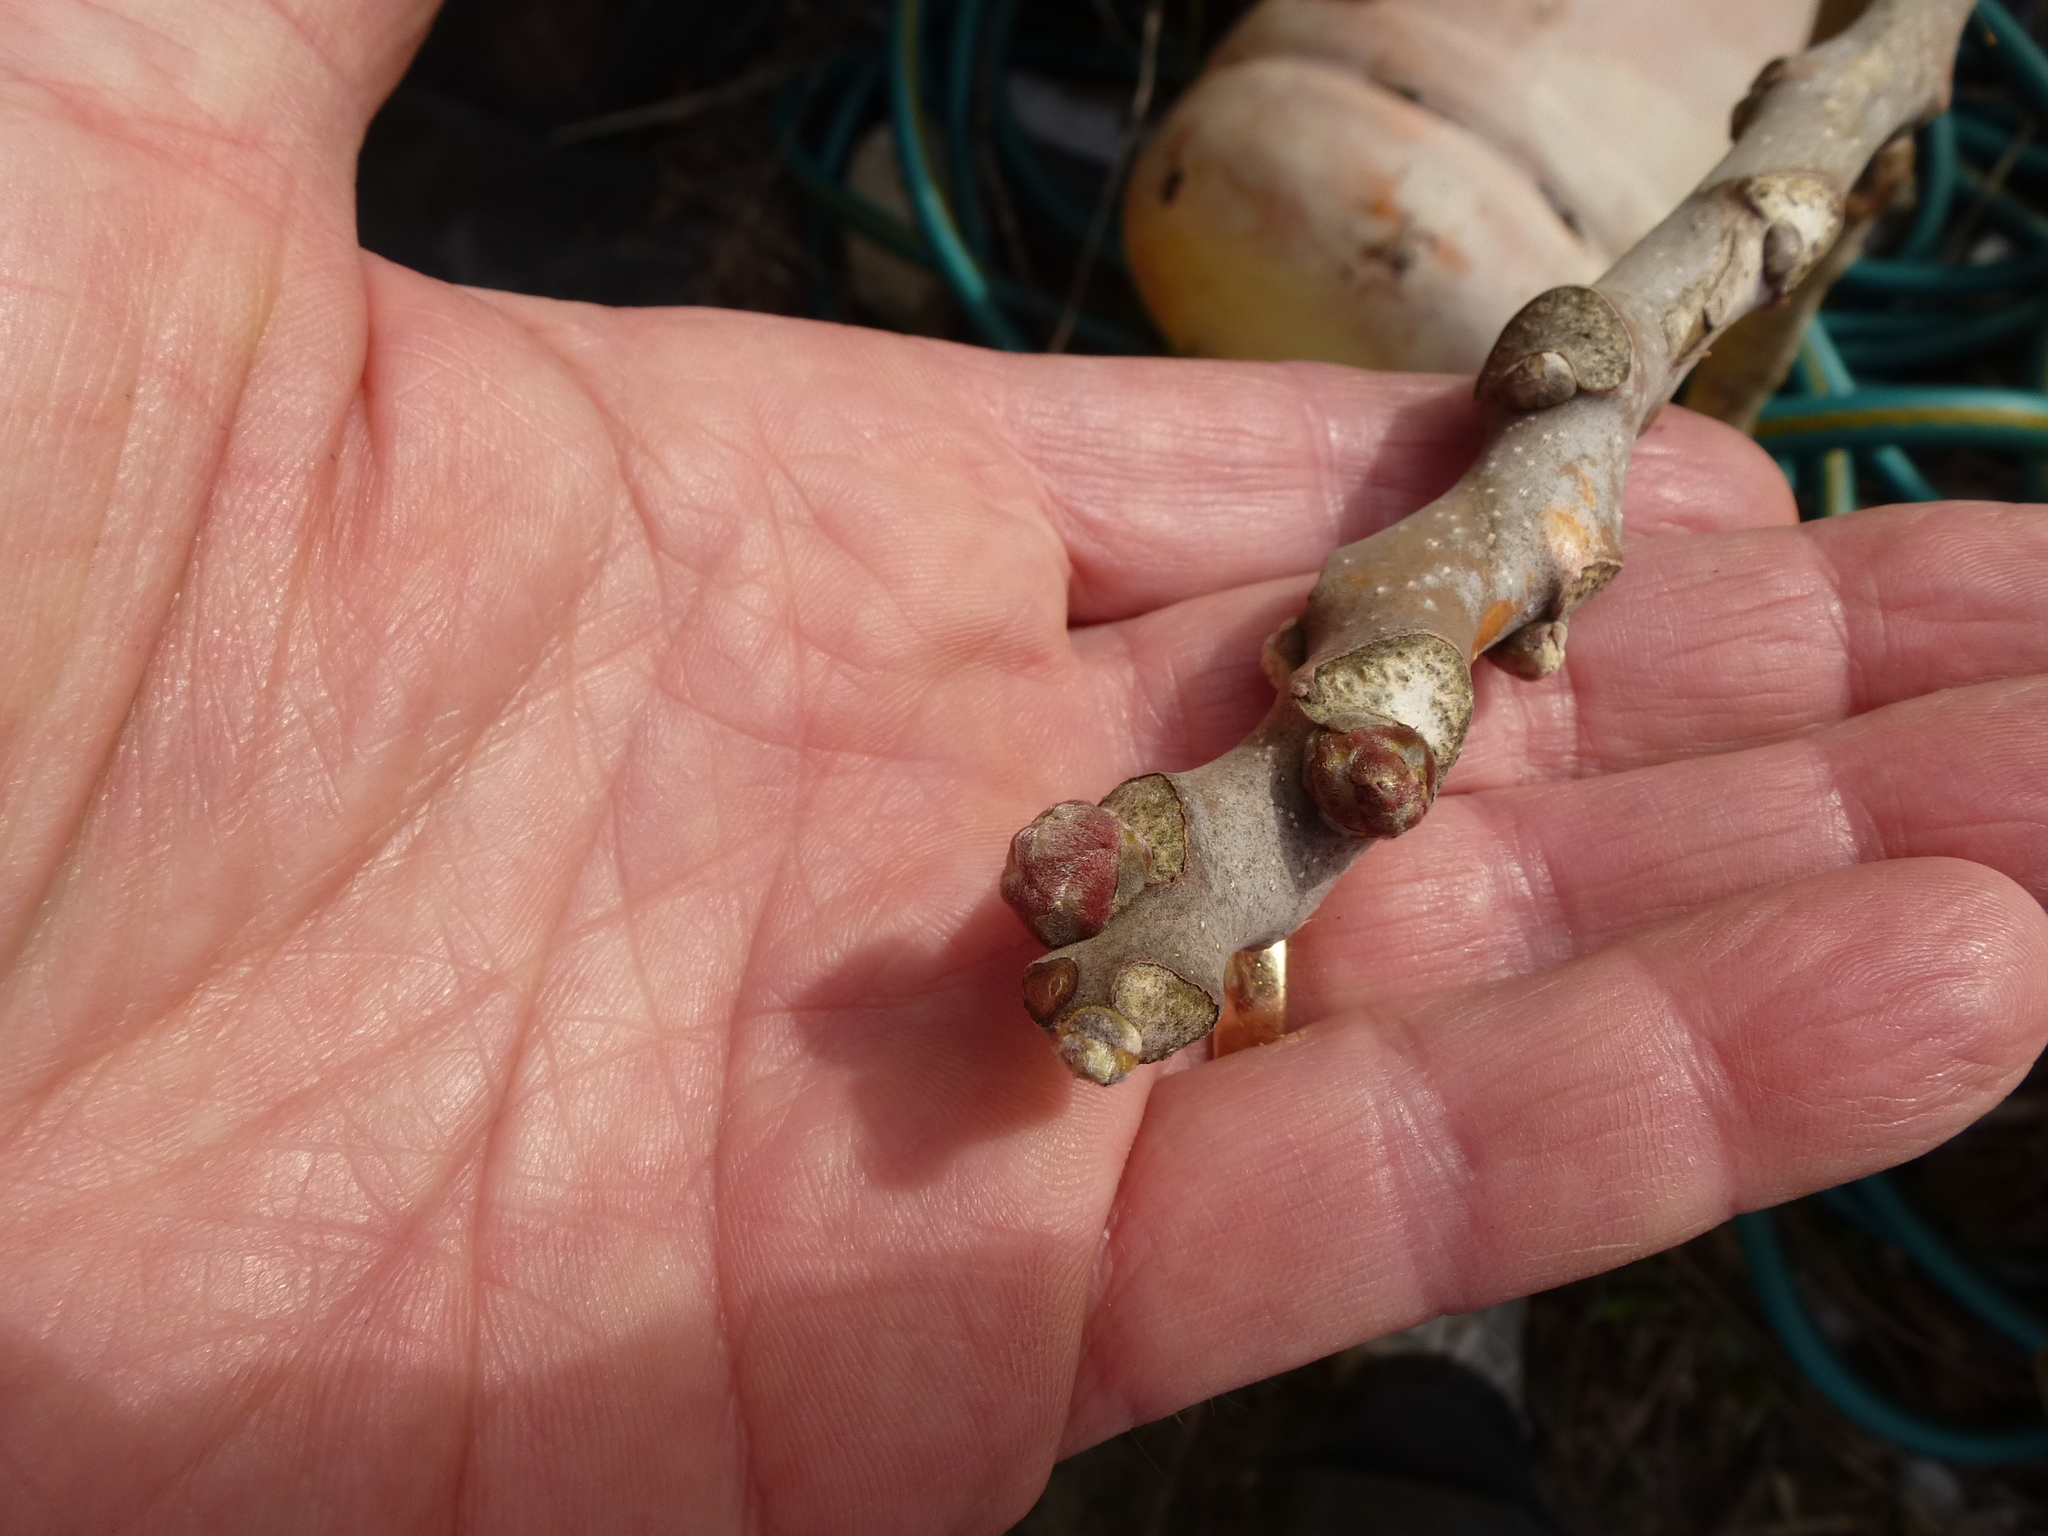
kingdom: Plantae
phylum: Tracheophyta
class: Magnoliopsida
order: Sapindales
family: Simaroubaceae
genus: Ailanthus
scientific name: Ailanthus altissima
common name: Tree-of-heaven
